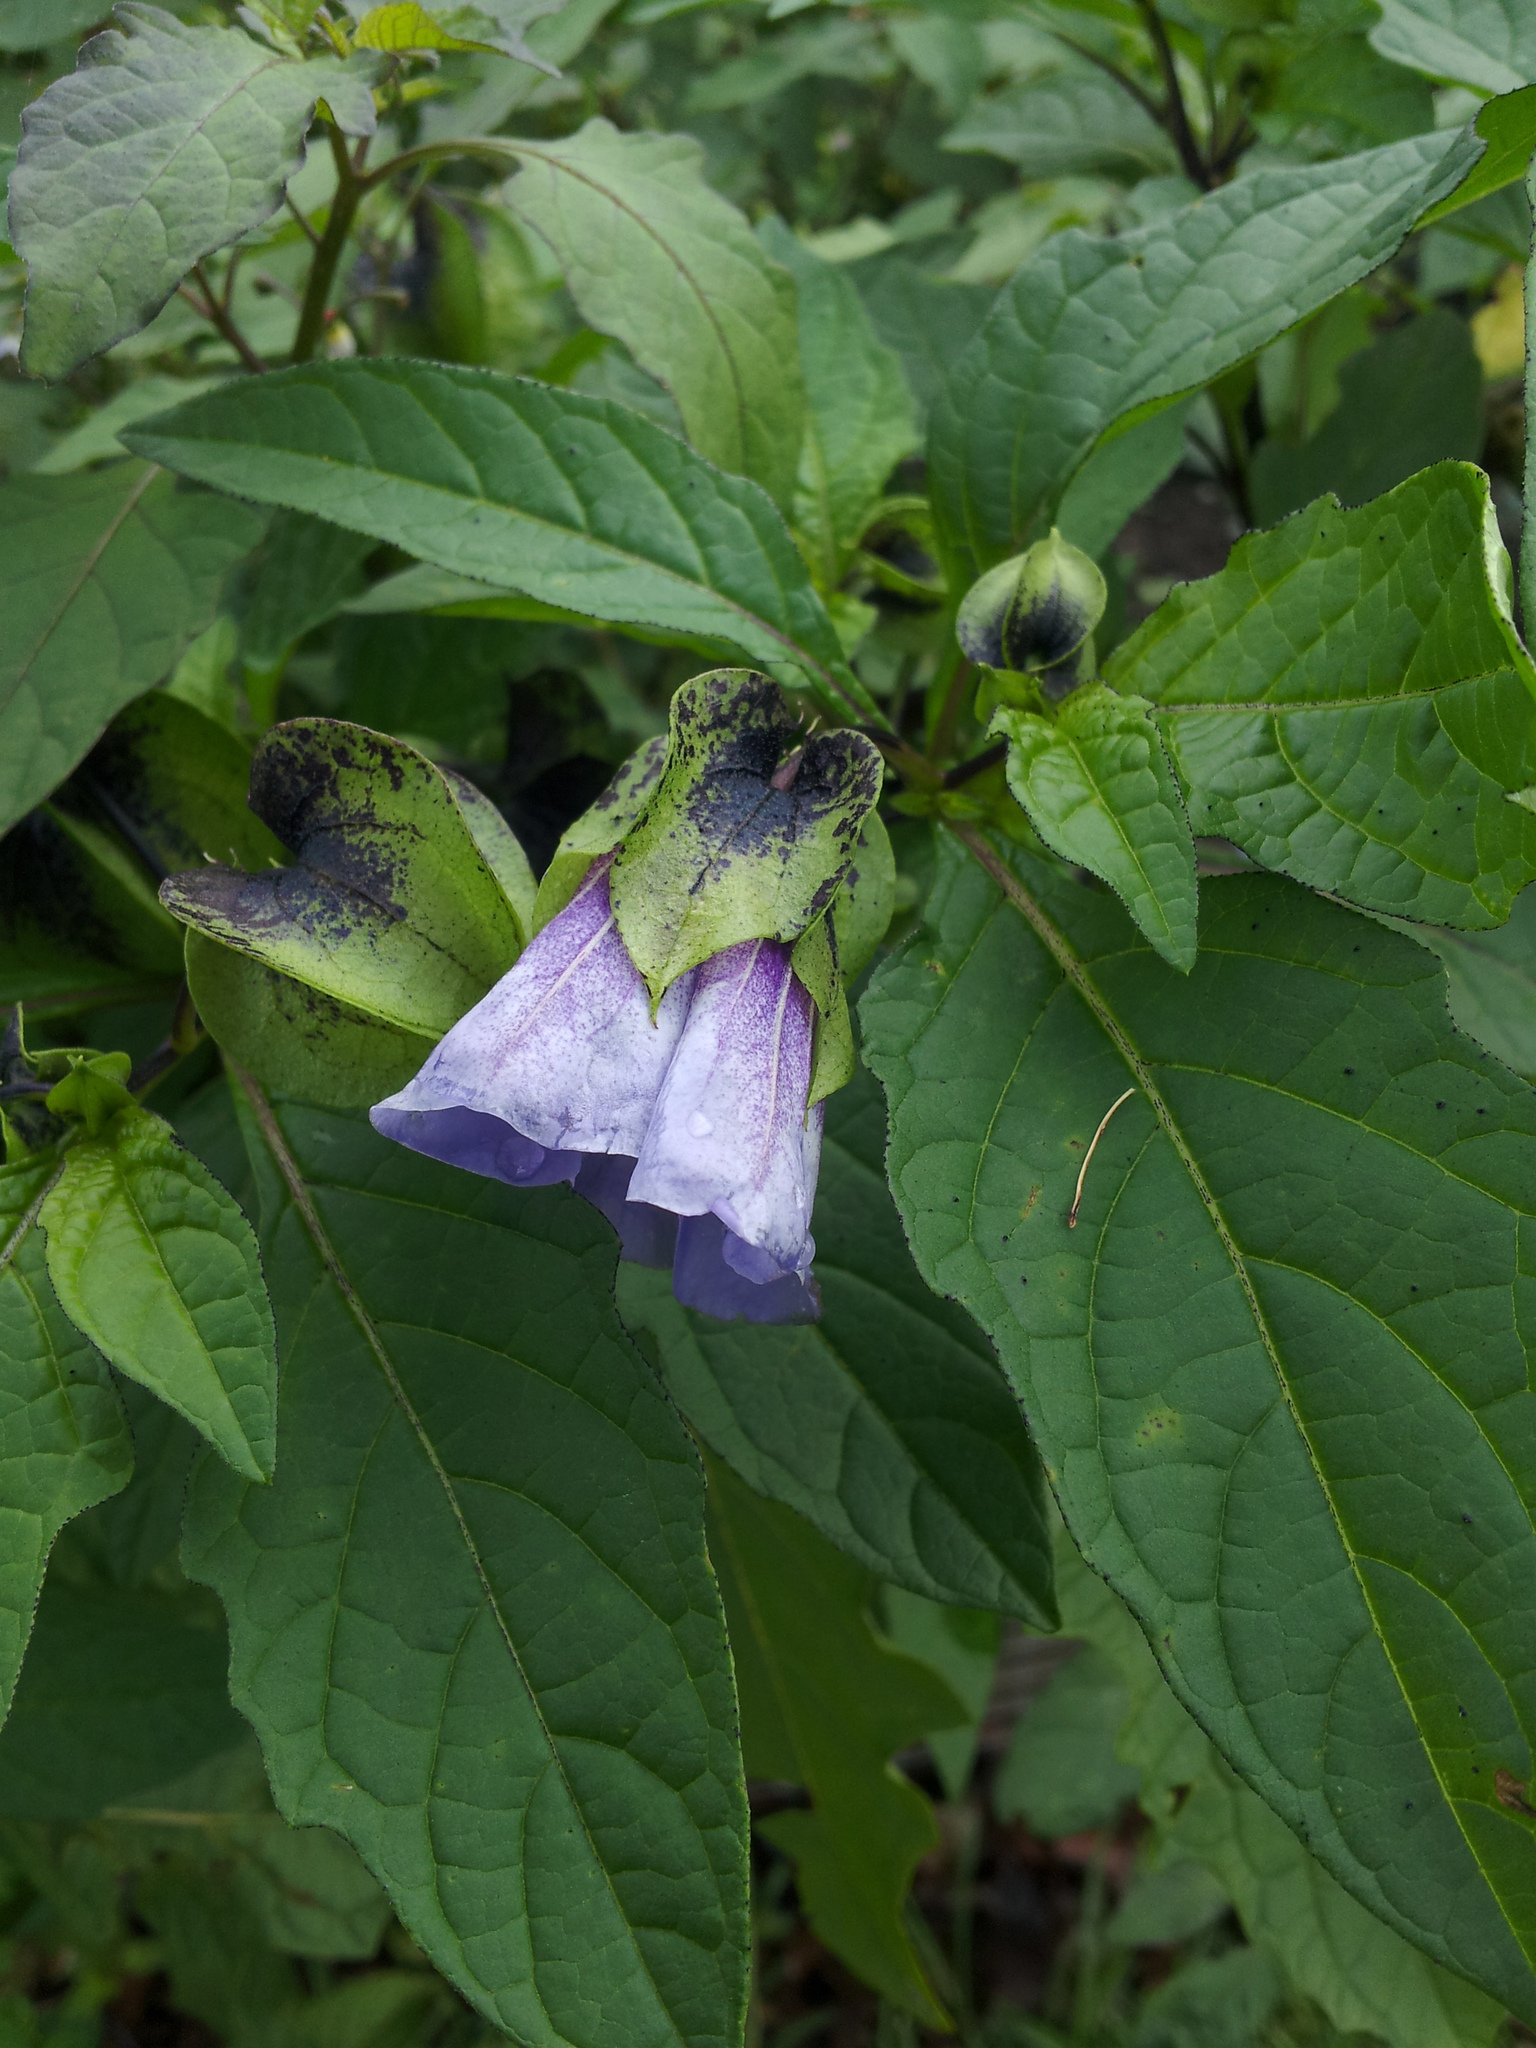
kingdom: Plantae
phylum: Tracheophyta
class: Magnoliopsida
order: Solanales
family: Solanaceae
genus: Nicandra
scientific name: Nicandra physalodes
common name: Apple-of-peru
